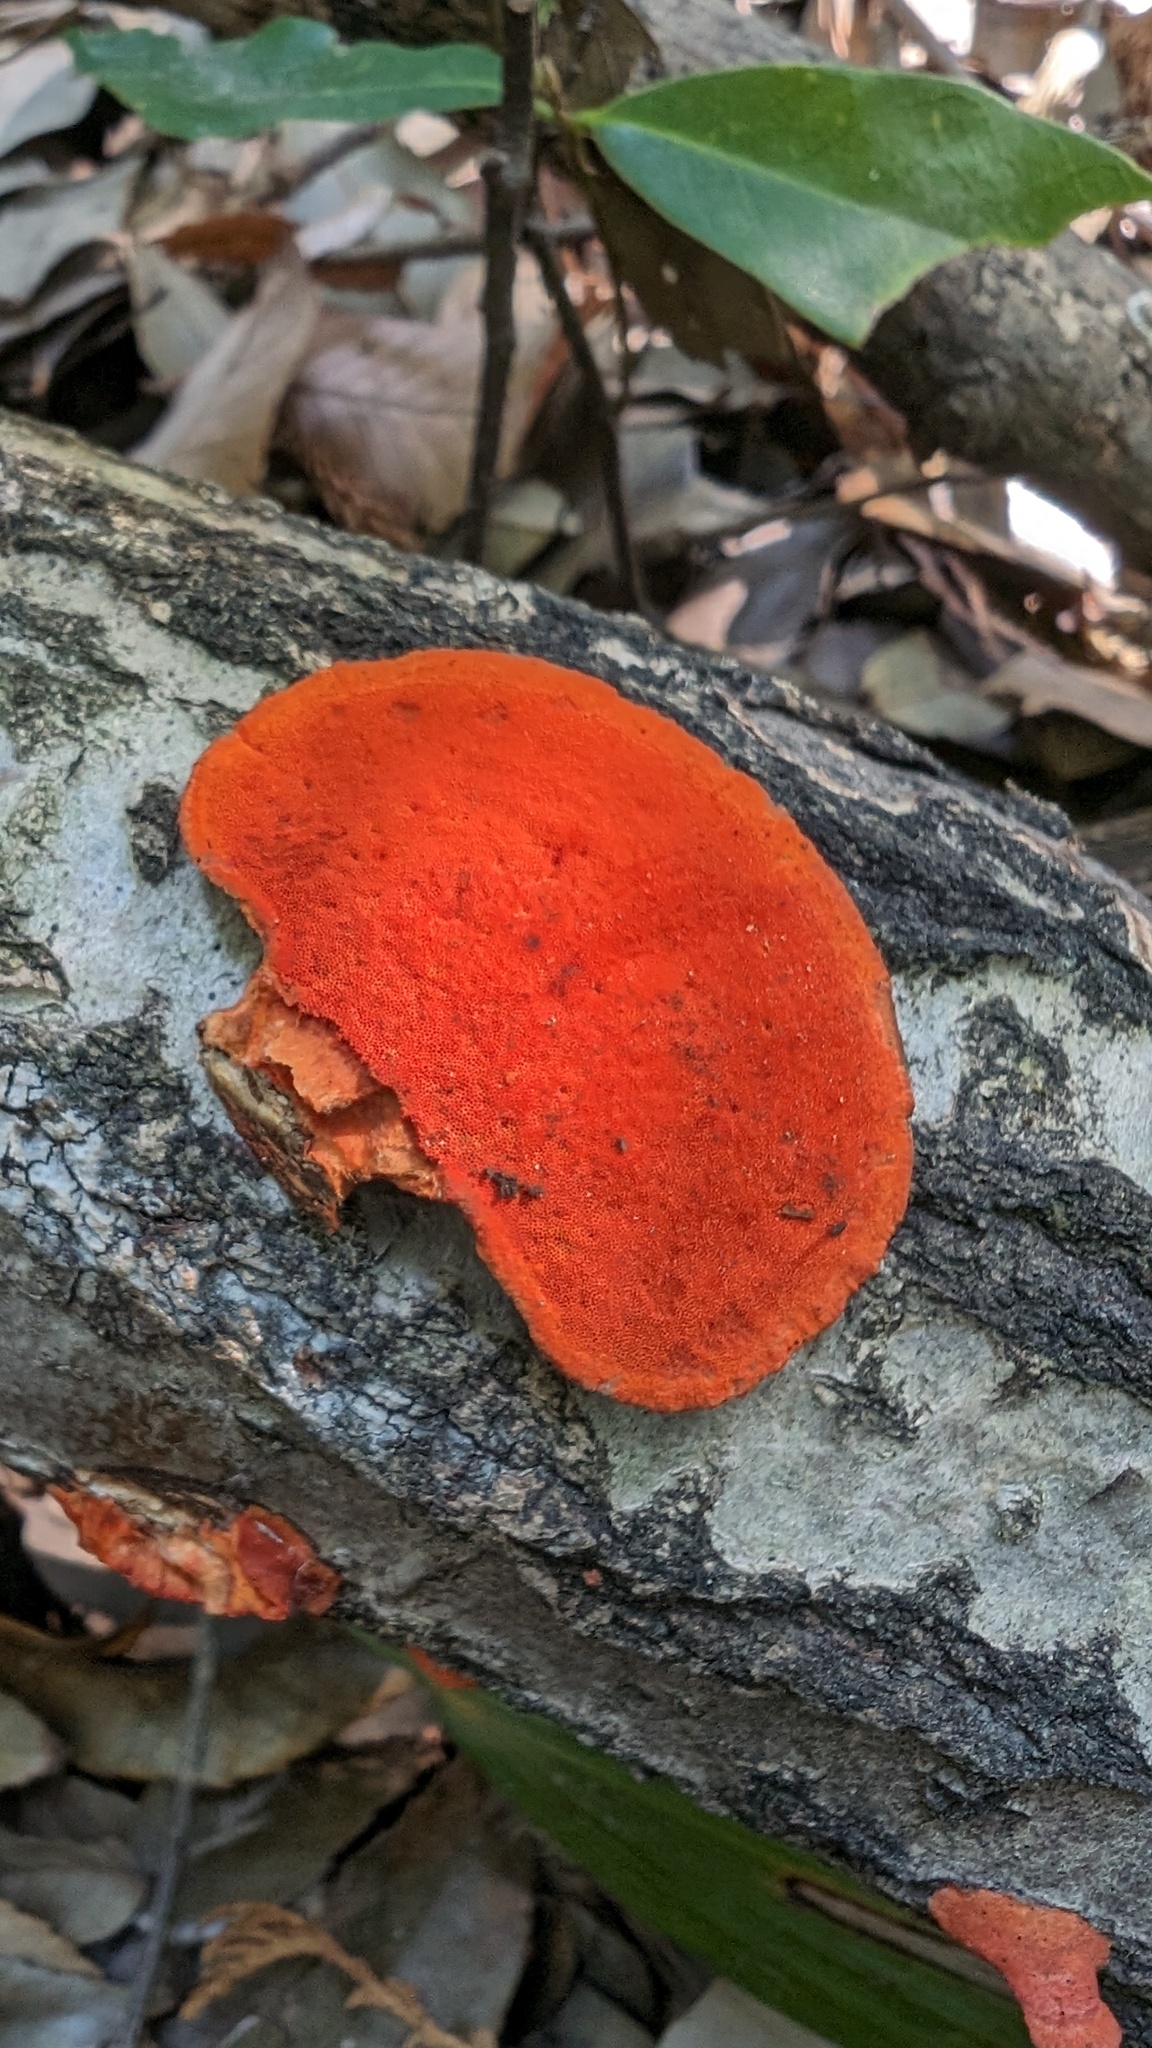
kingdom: Fungi
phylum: Basidiomycota
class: Agaricomycetes
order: Polyporales
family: Polyporaceae
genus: Trametes
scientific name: Trametes coccinea
